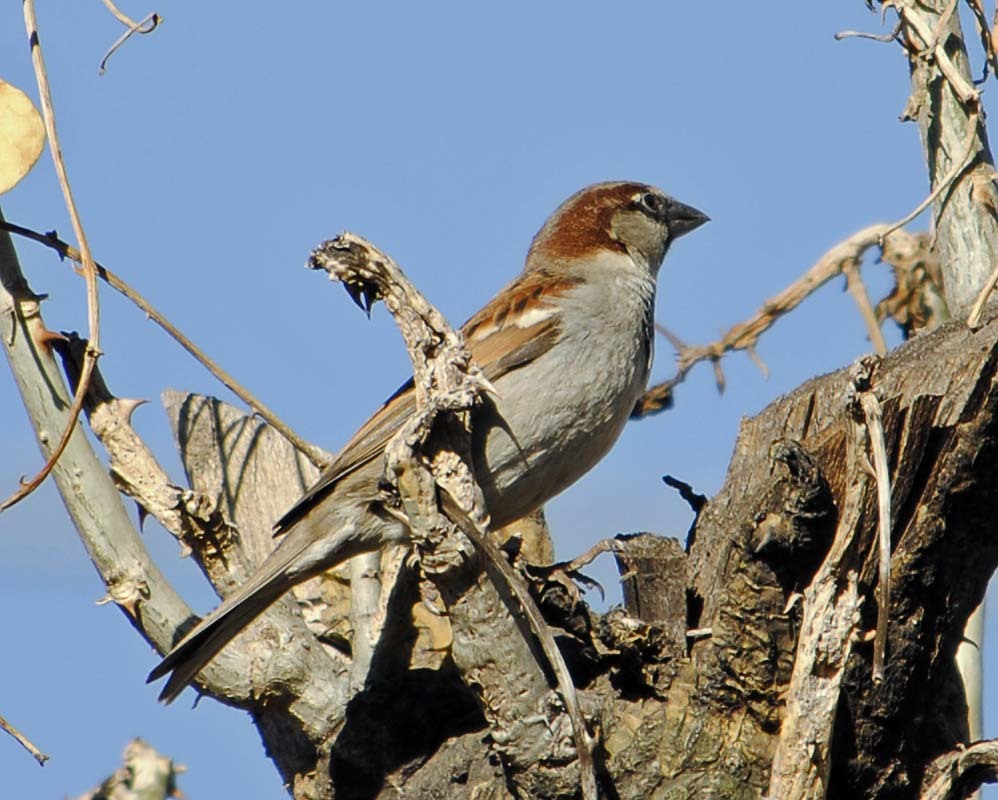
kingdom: Animalia
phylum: Chordata
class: Aves
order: Passeriformes
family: Passeridae
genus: Passer
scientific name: Passer domesticus
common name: House sparrow
